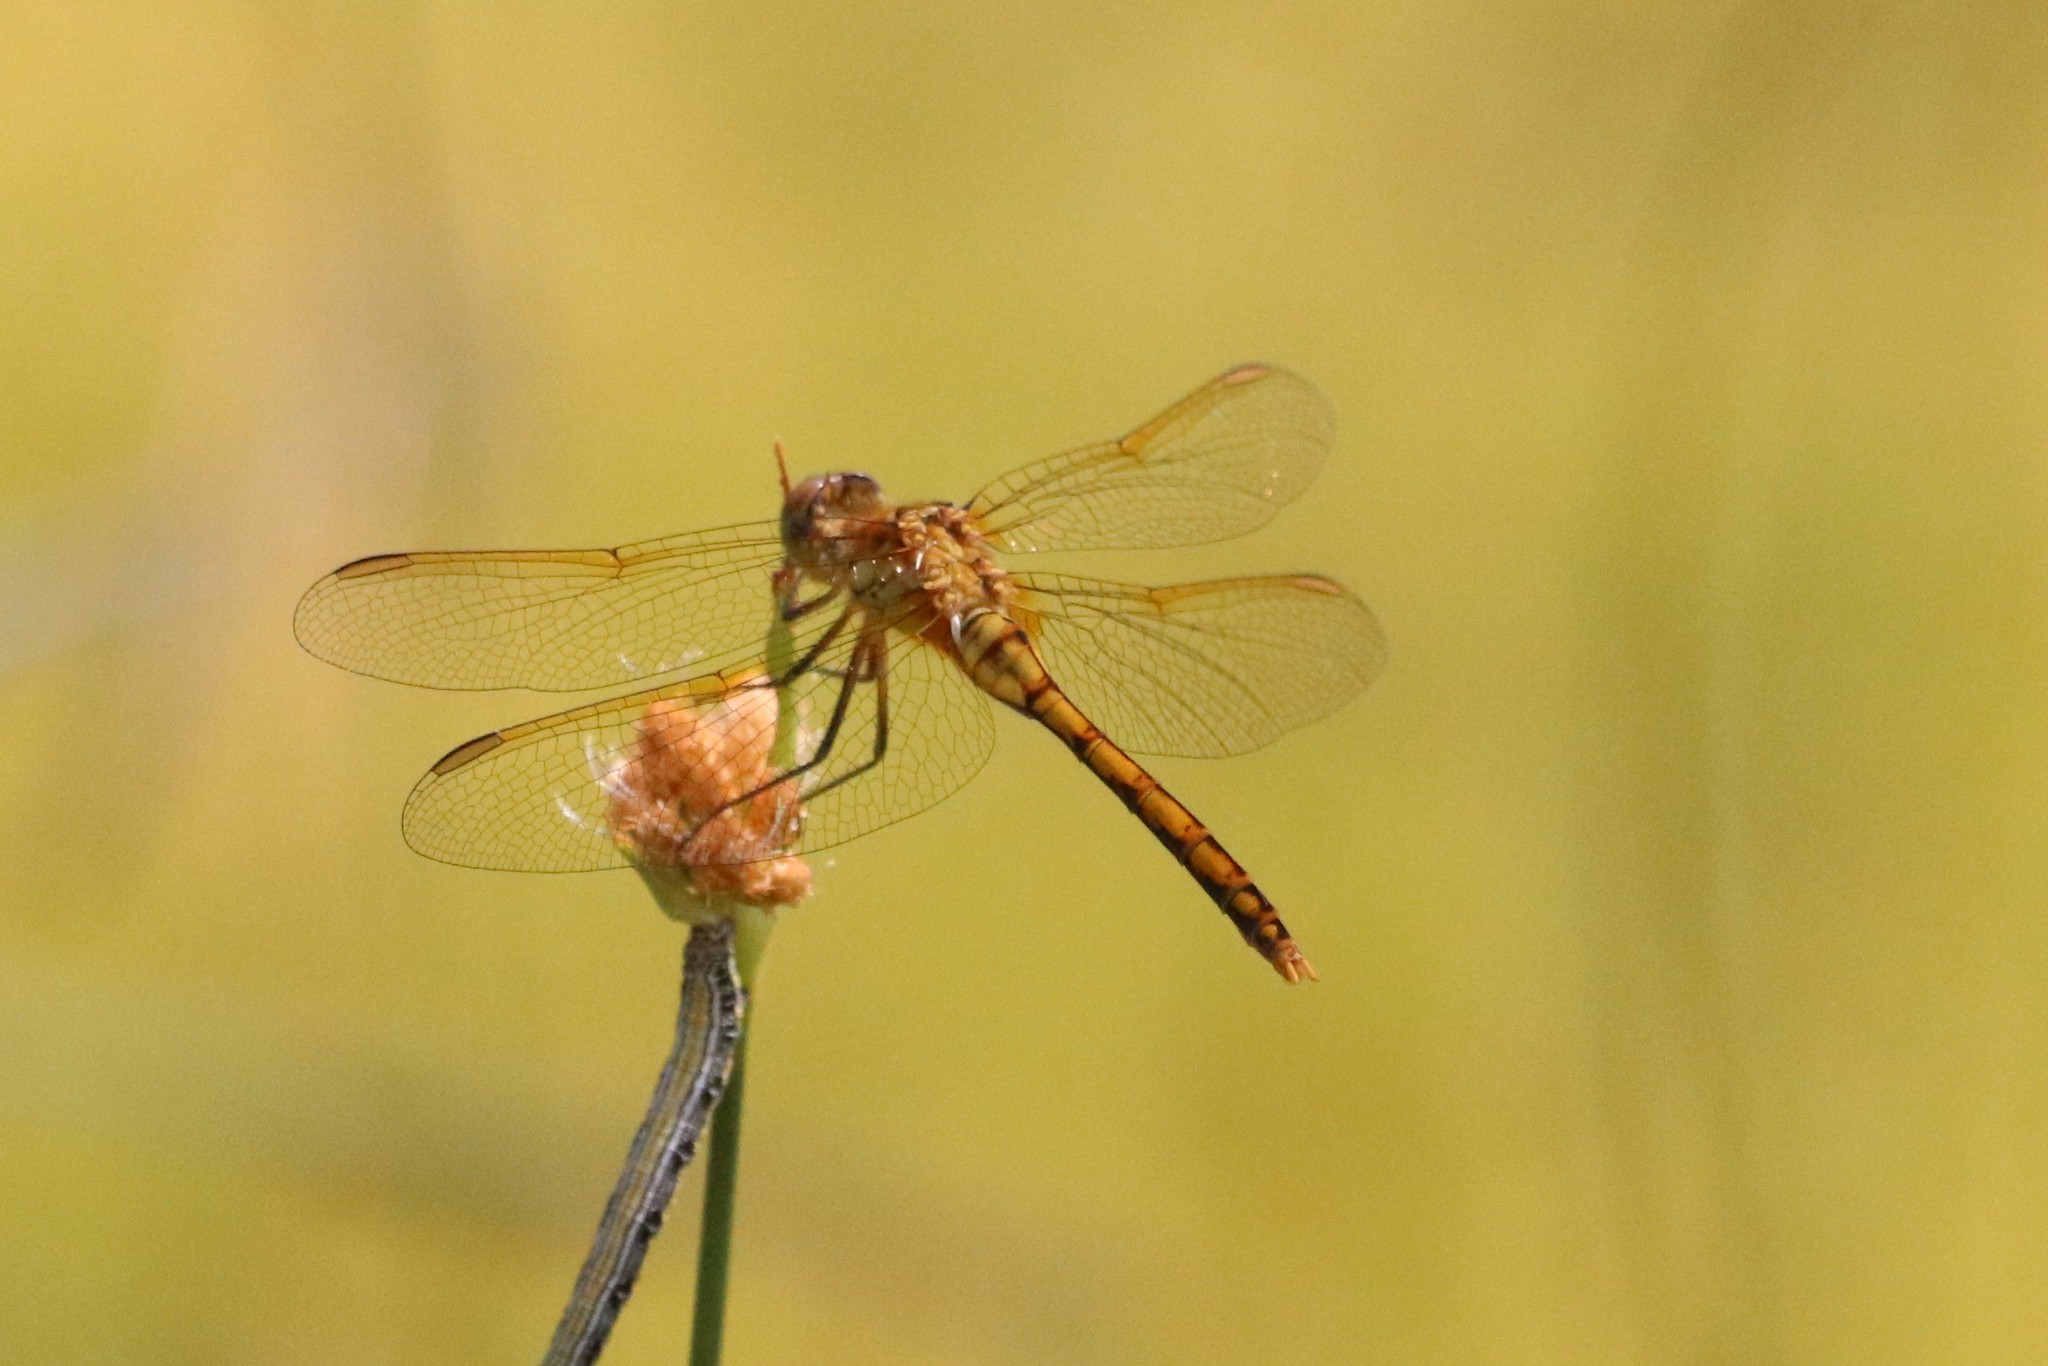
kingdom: Animalia
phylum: Arthropoda
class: Insecta
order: Odonata
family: Libellulidae
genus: Sympetrum
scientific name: Sympetrum costiferum
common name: Saffron-winged meadowhawk
